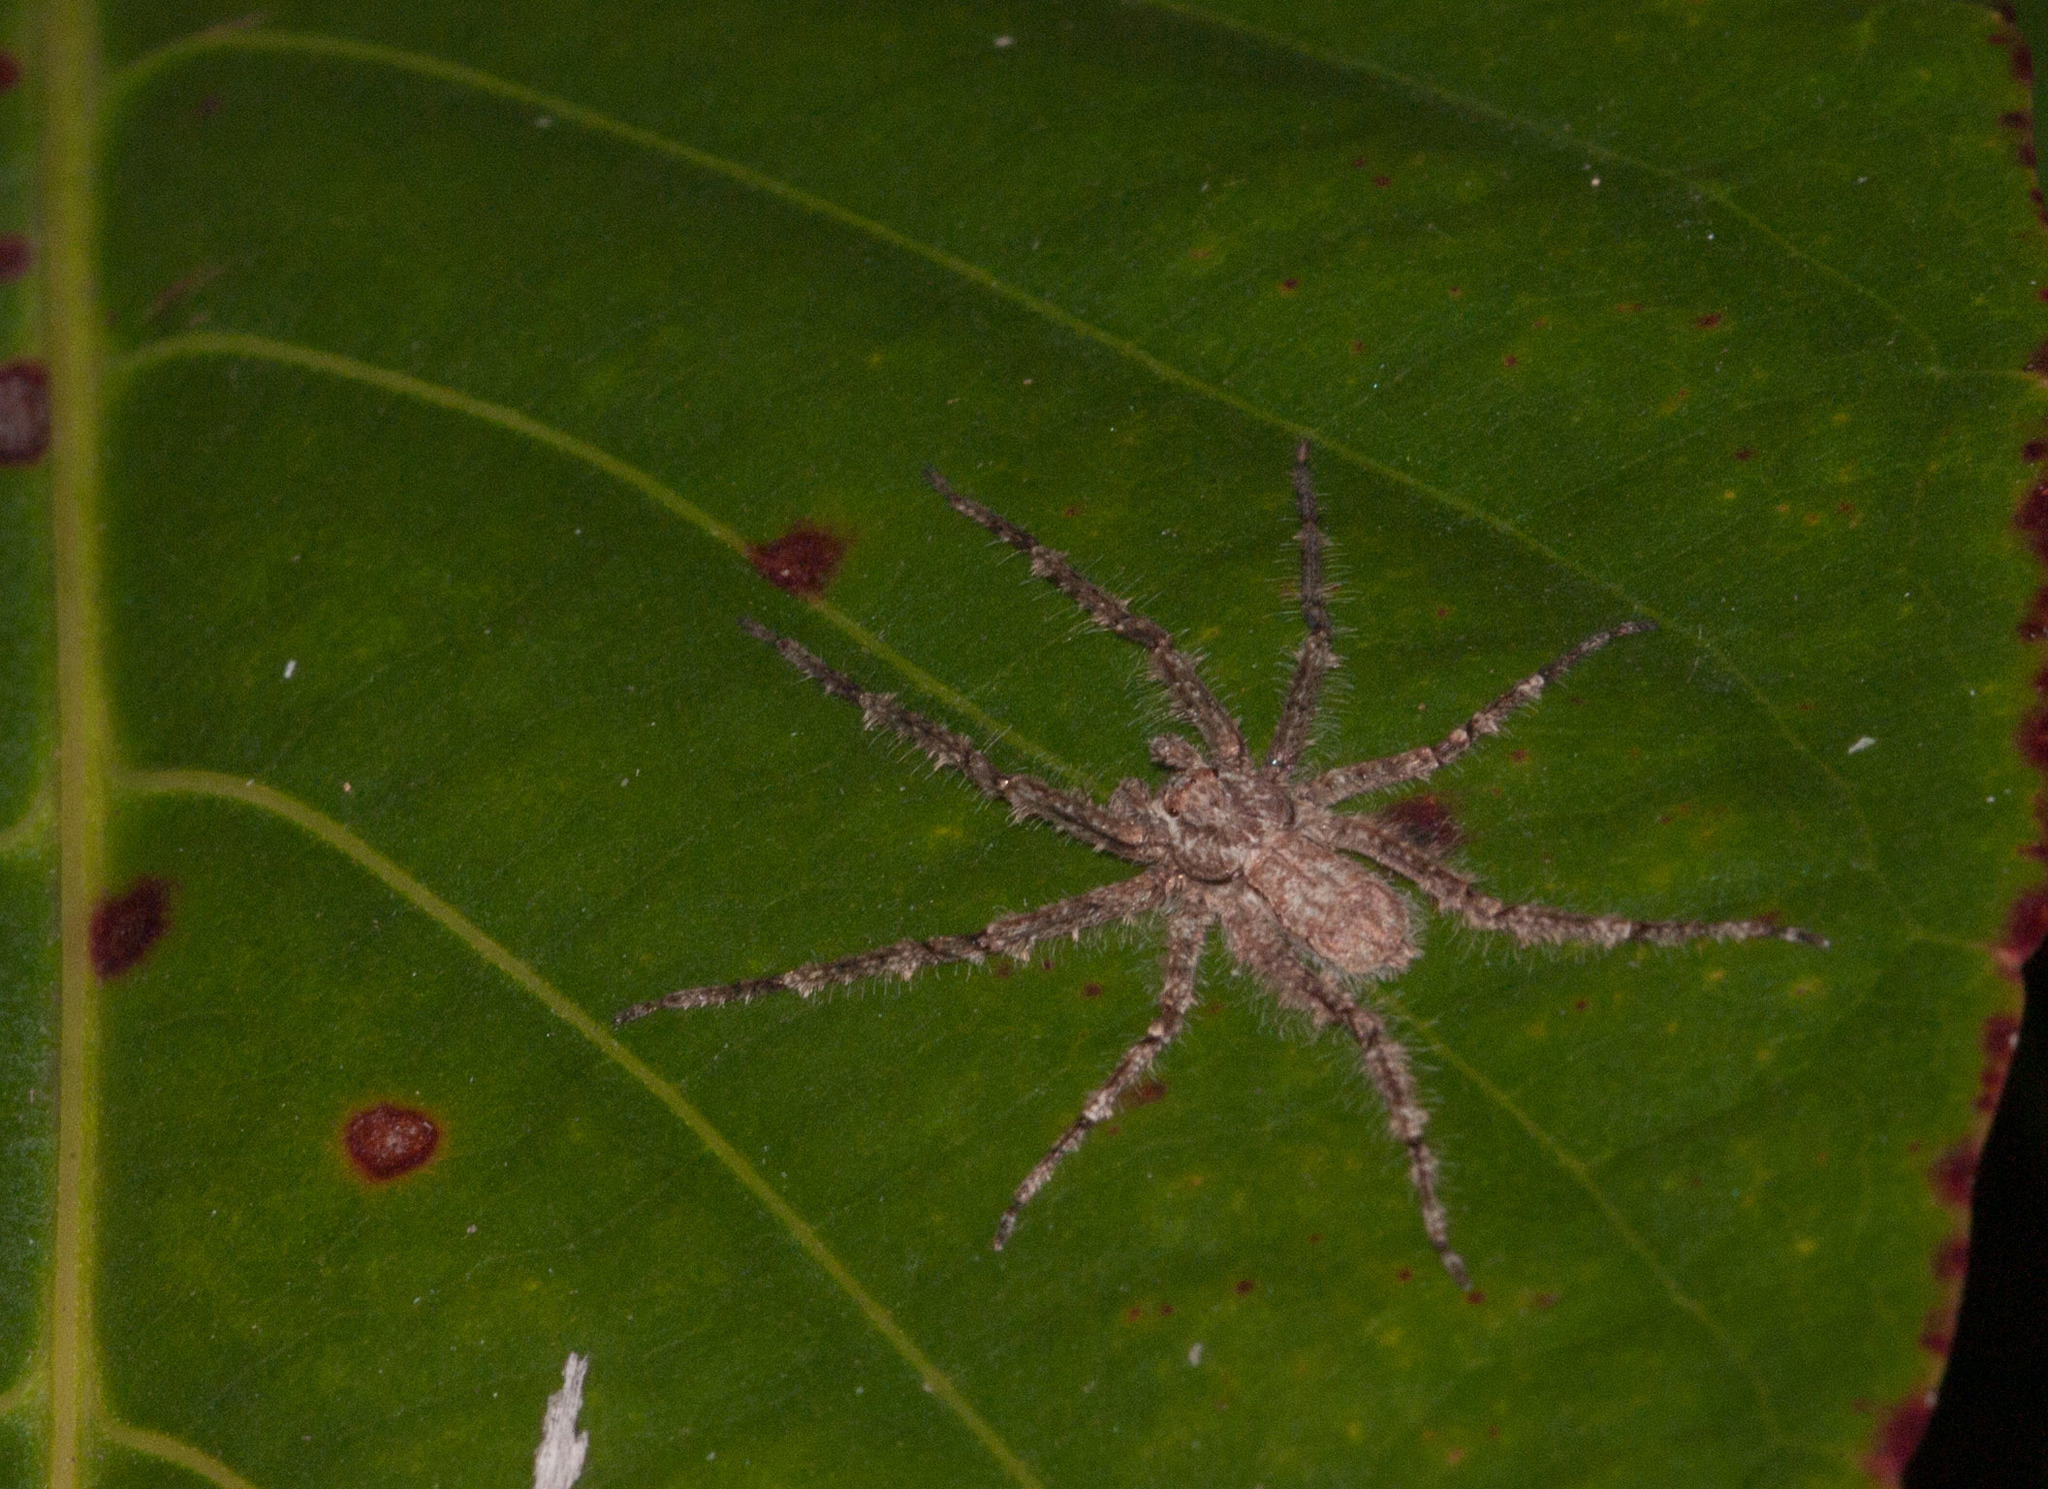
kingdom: Animalia
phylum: Arthropoda
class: Arachnida
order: Araneae
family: Sparassidae
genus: Pandercetes
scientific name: Pandercetes gracilis
